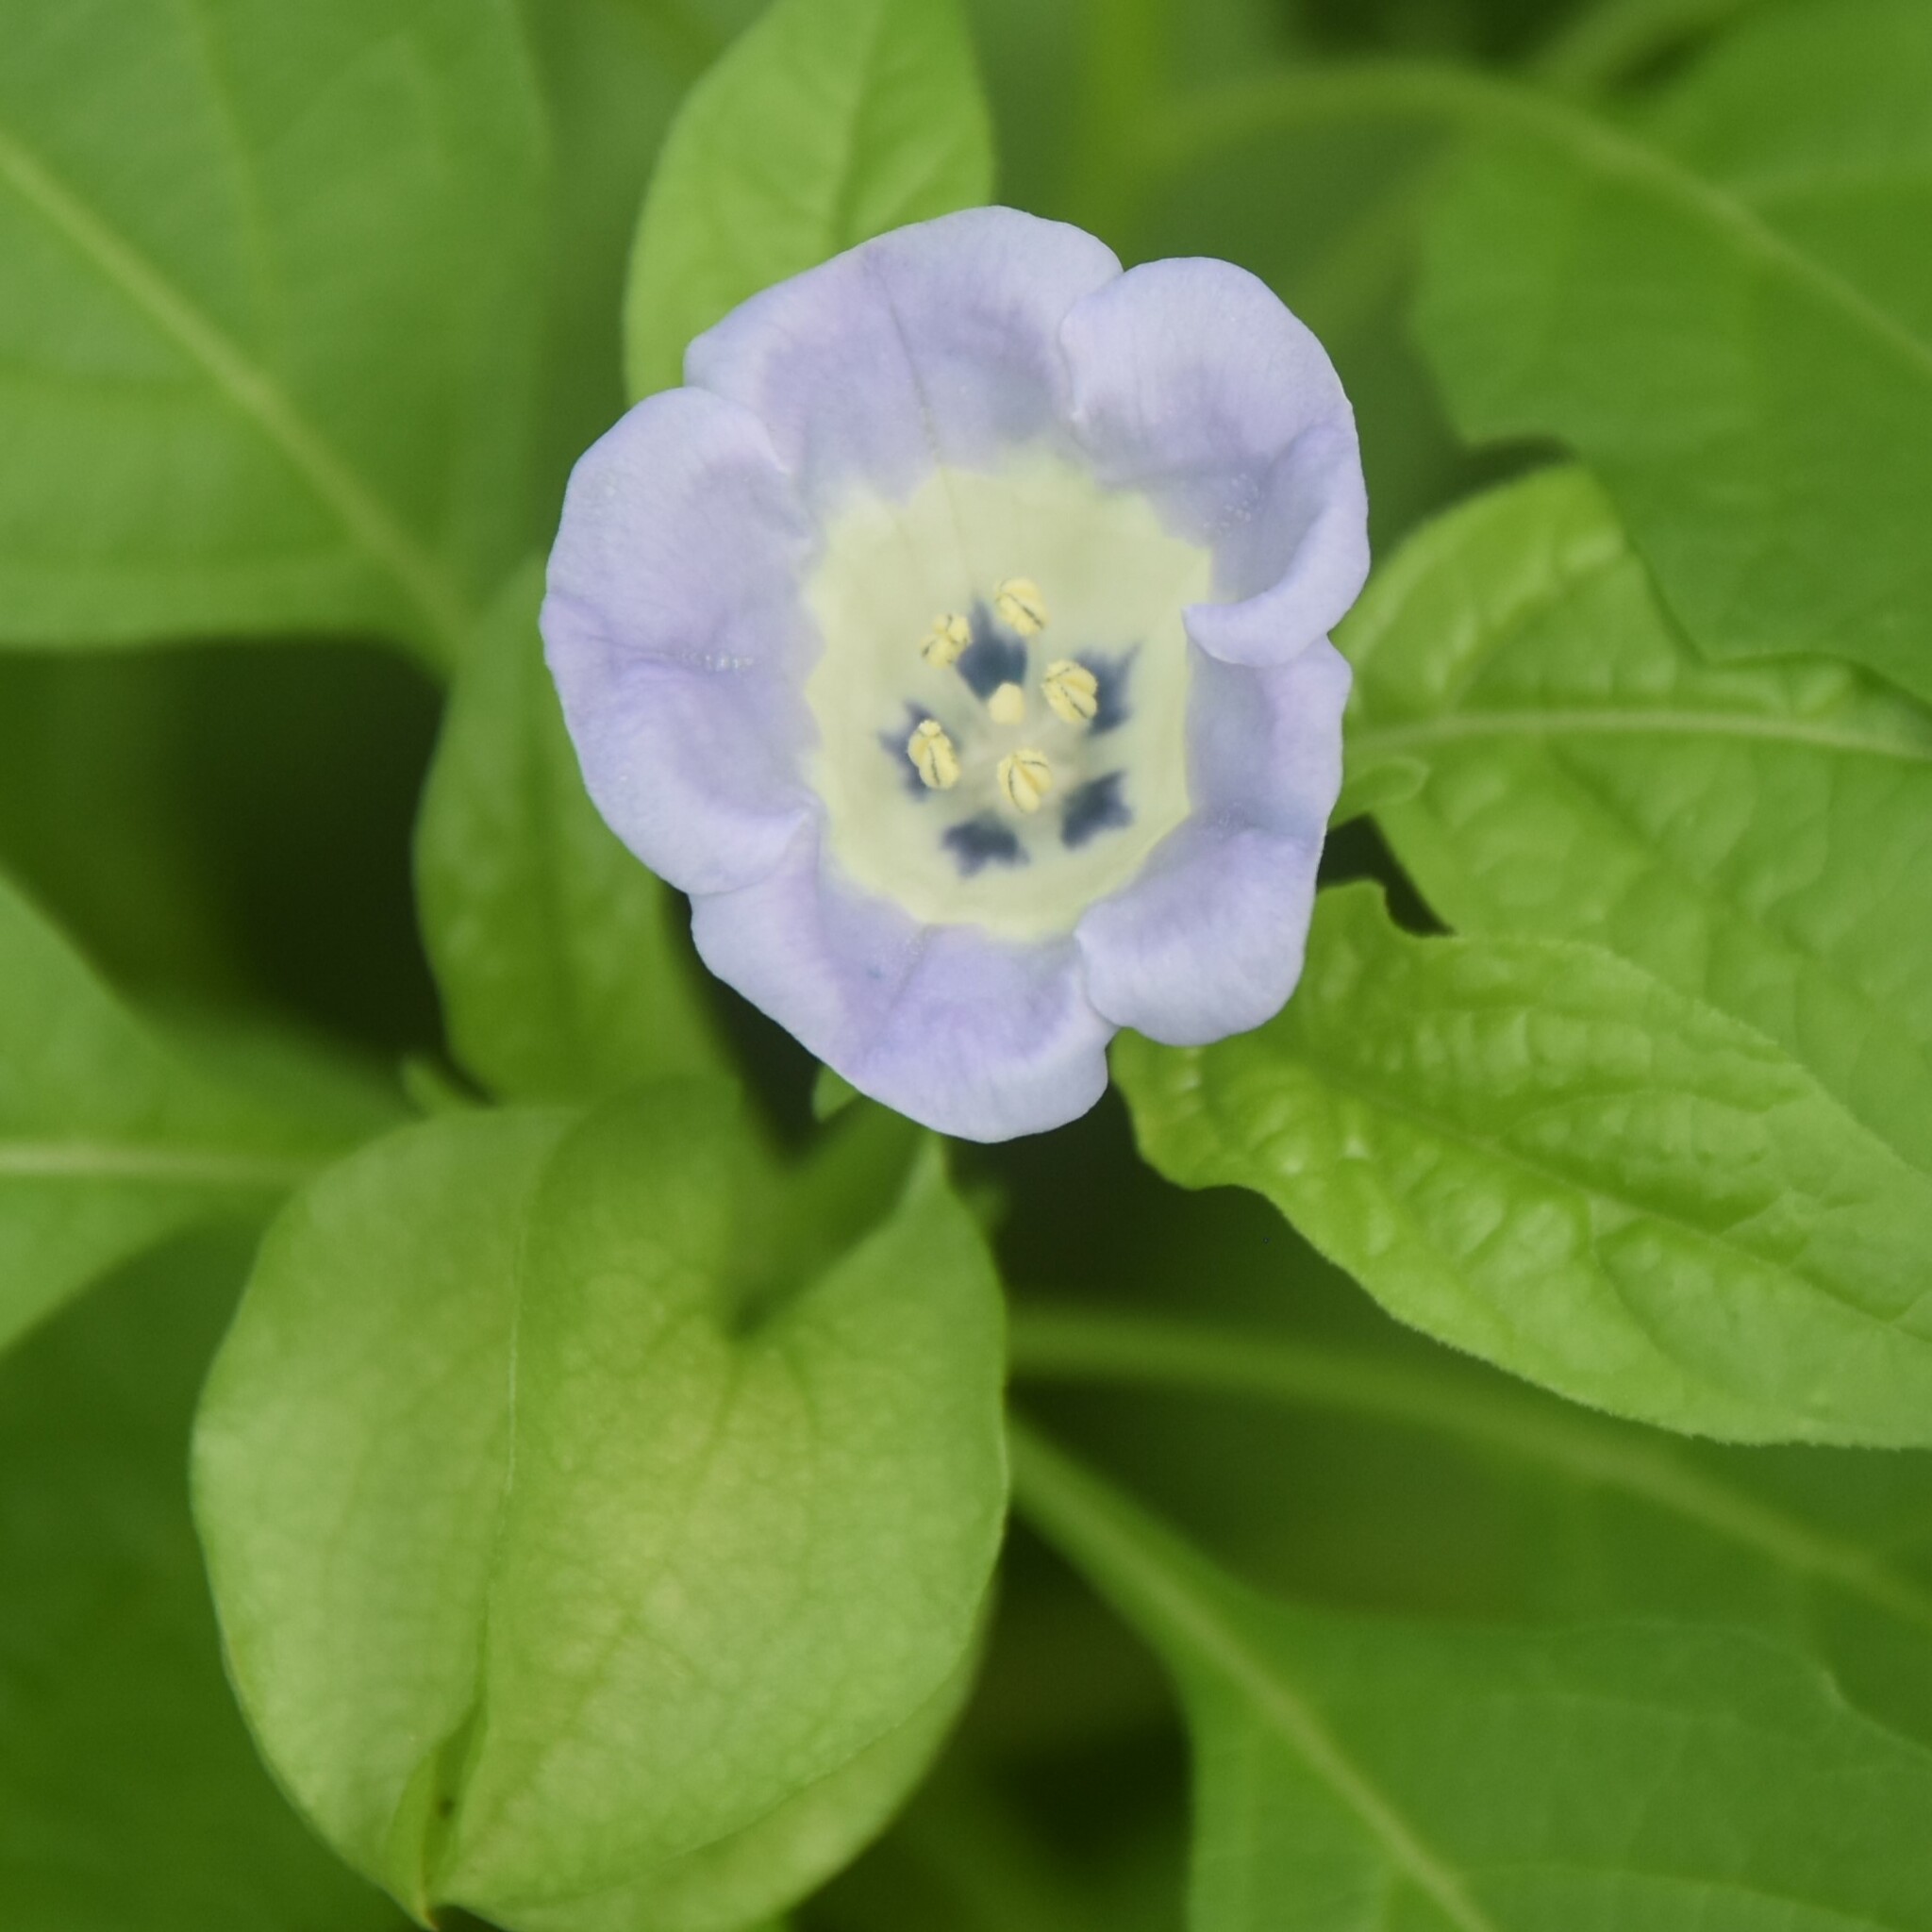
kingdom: Plantae
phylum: Tracheophyta
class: Magnoliopsida
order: Solanales
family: Solanaceae
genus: Nicandra
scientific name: Nicandra physalodes
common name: Apple-of-peru
